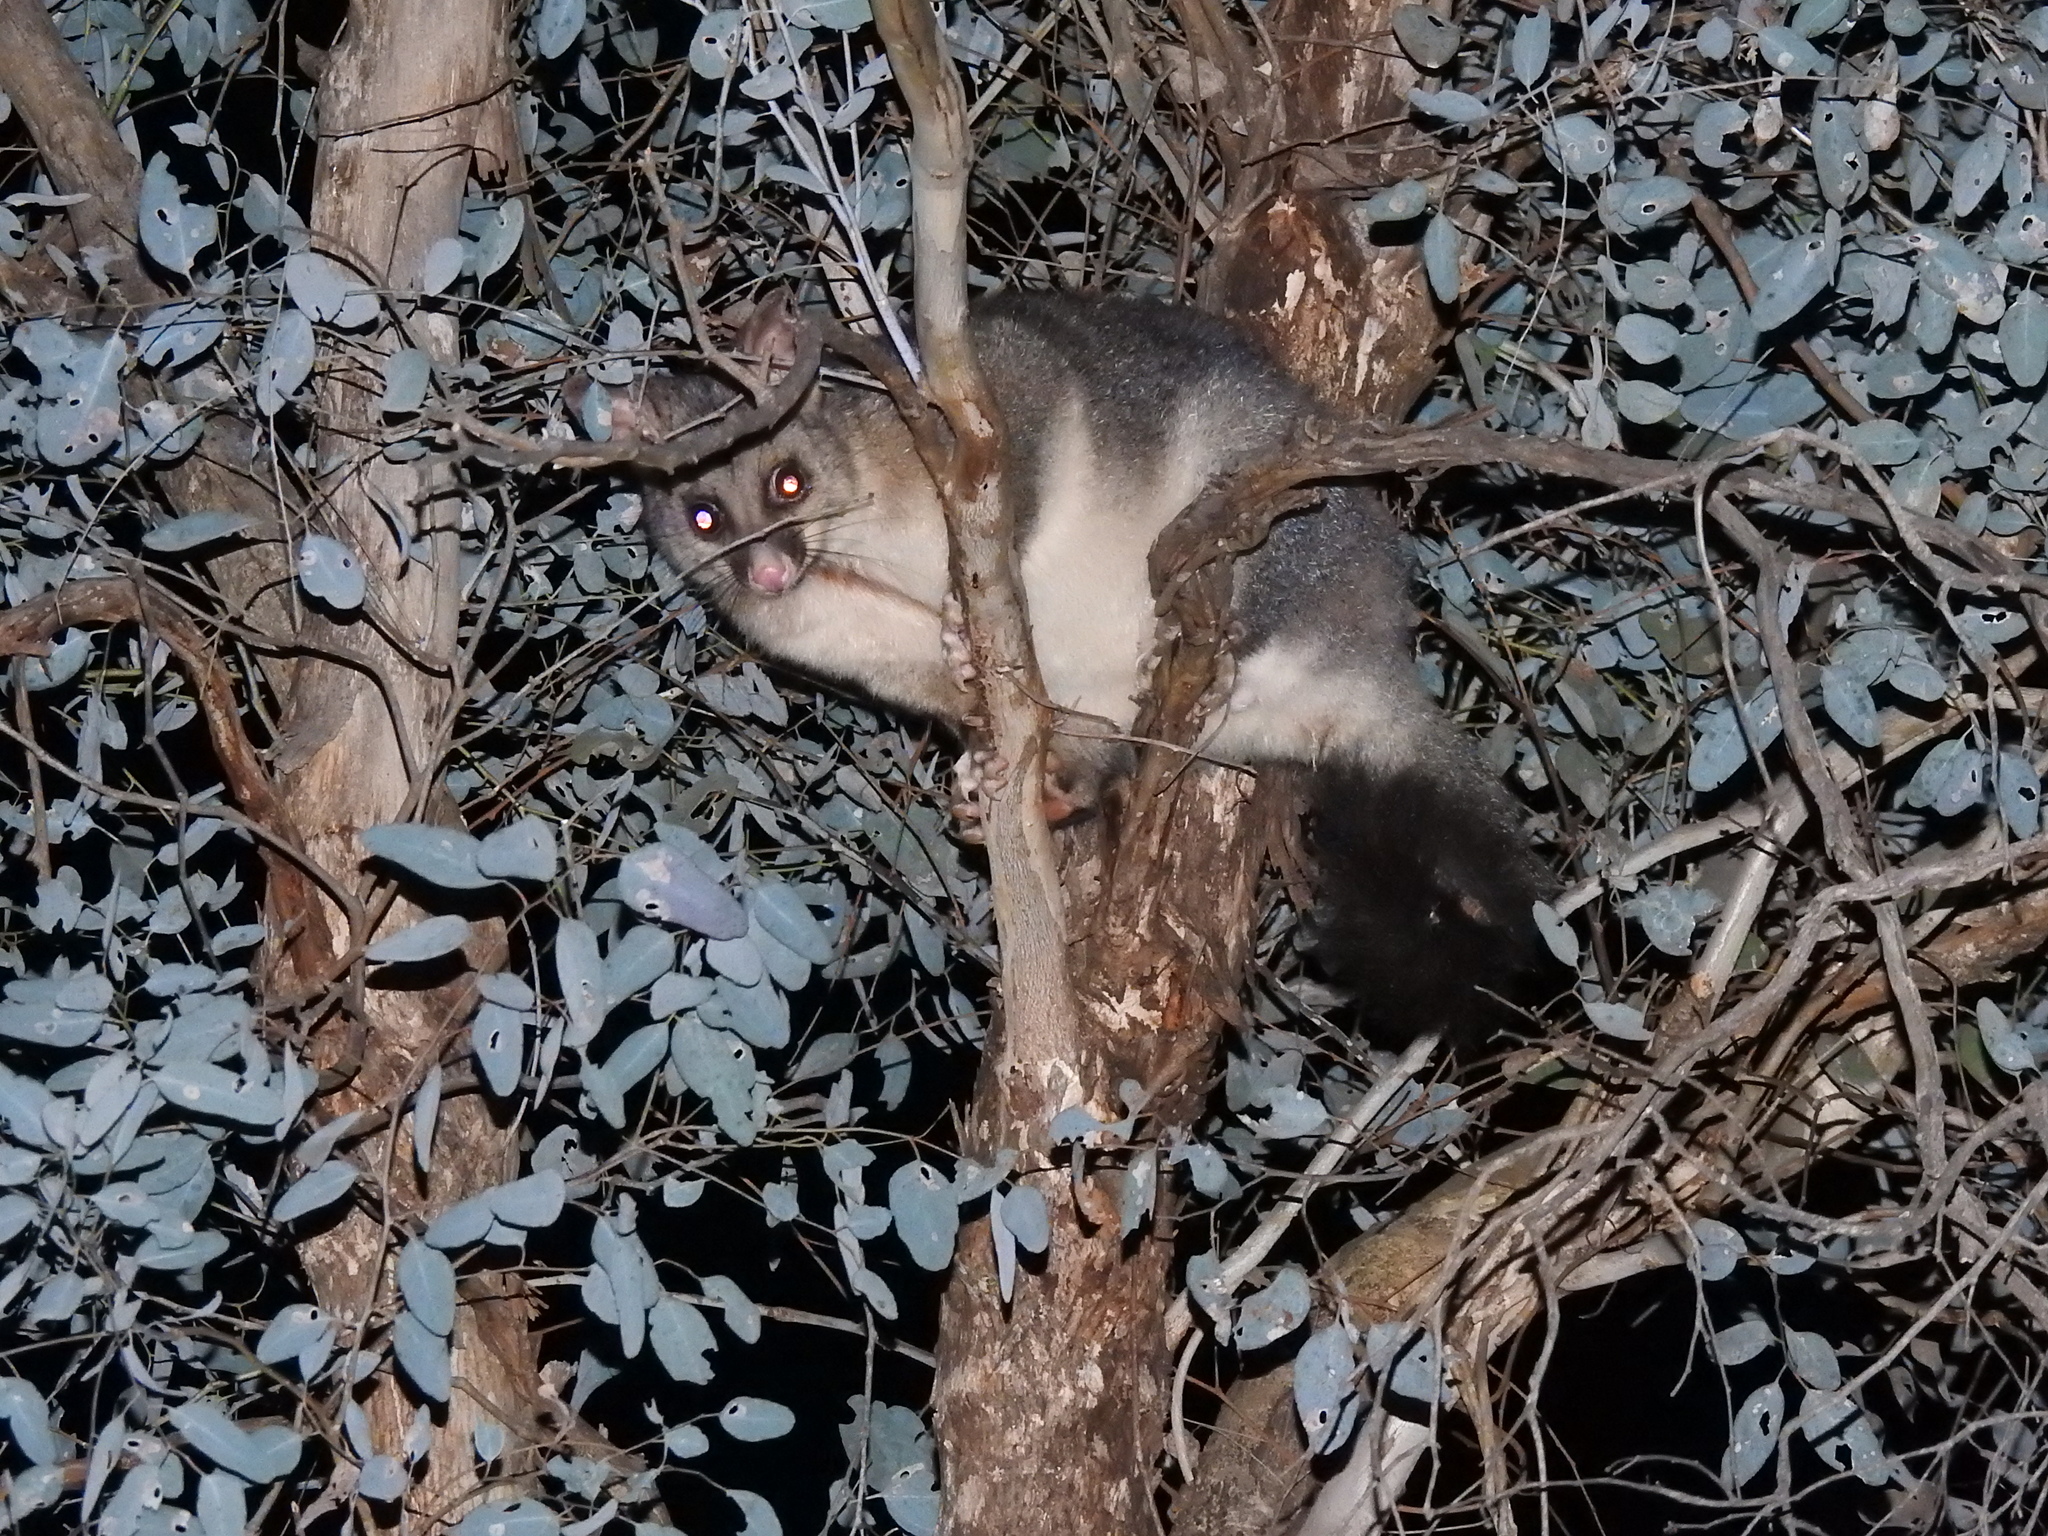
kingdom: Animalia
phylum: Chordata
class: Mammalia
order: Diprotodontia
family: Phalangeridae
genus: Trichosurus
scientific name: Trichosurus vulpecula
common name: Common brushtail
